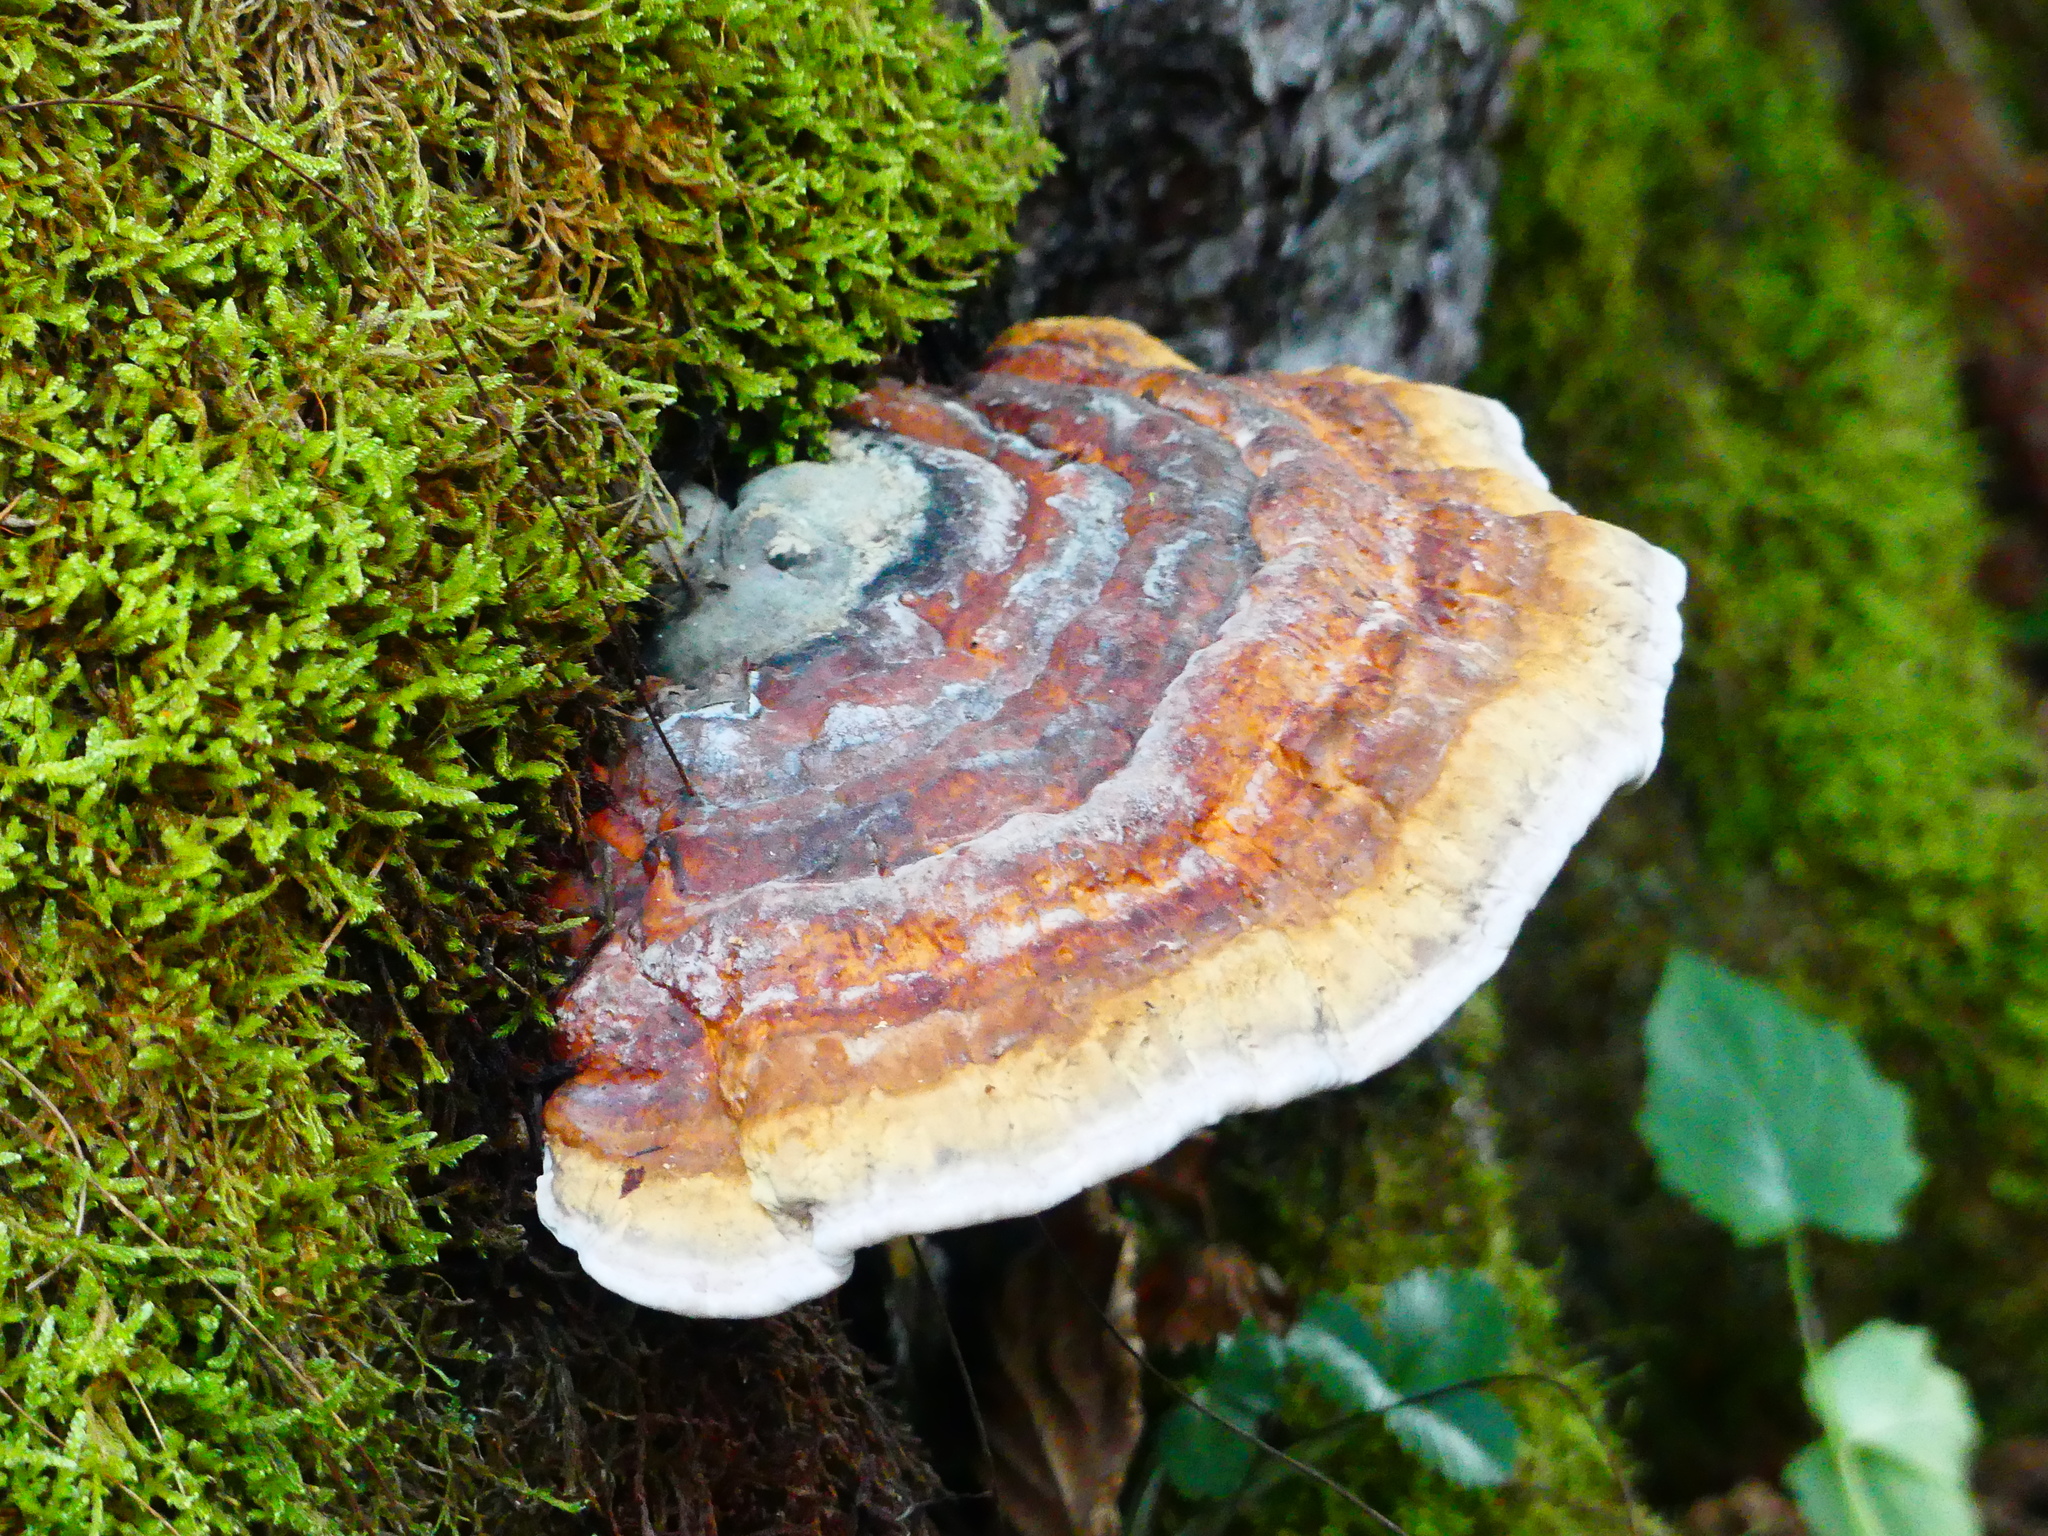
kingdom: Fungi
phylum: Basidiomycota
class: Agaricomycetes
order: Polyporales
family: Fomitopsidaceae
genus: Fomitopsis
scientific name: Fomitopsis pinicola
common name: Red-belted bracket
